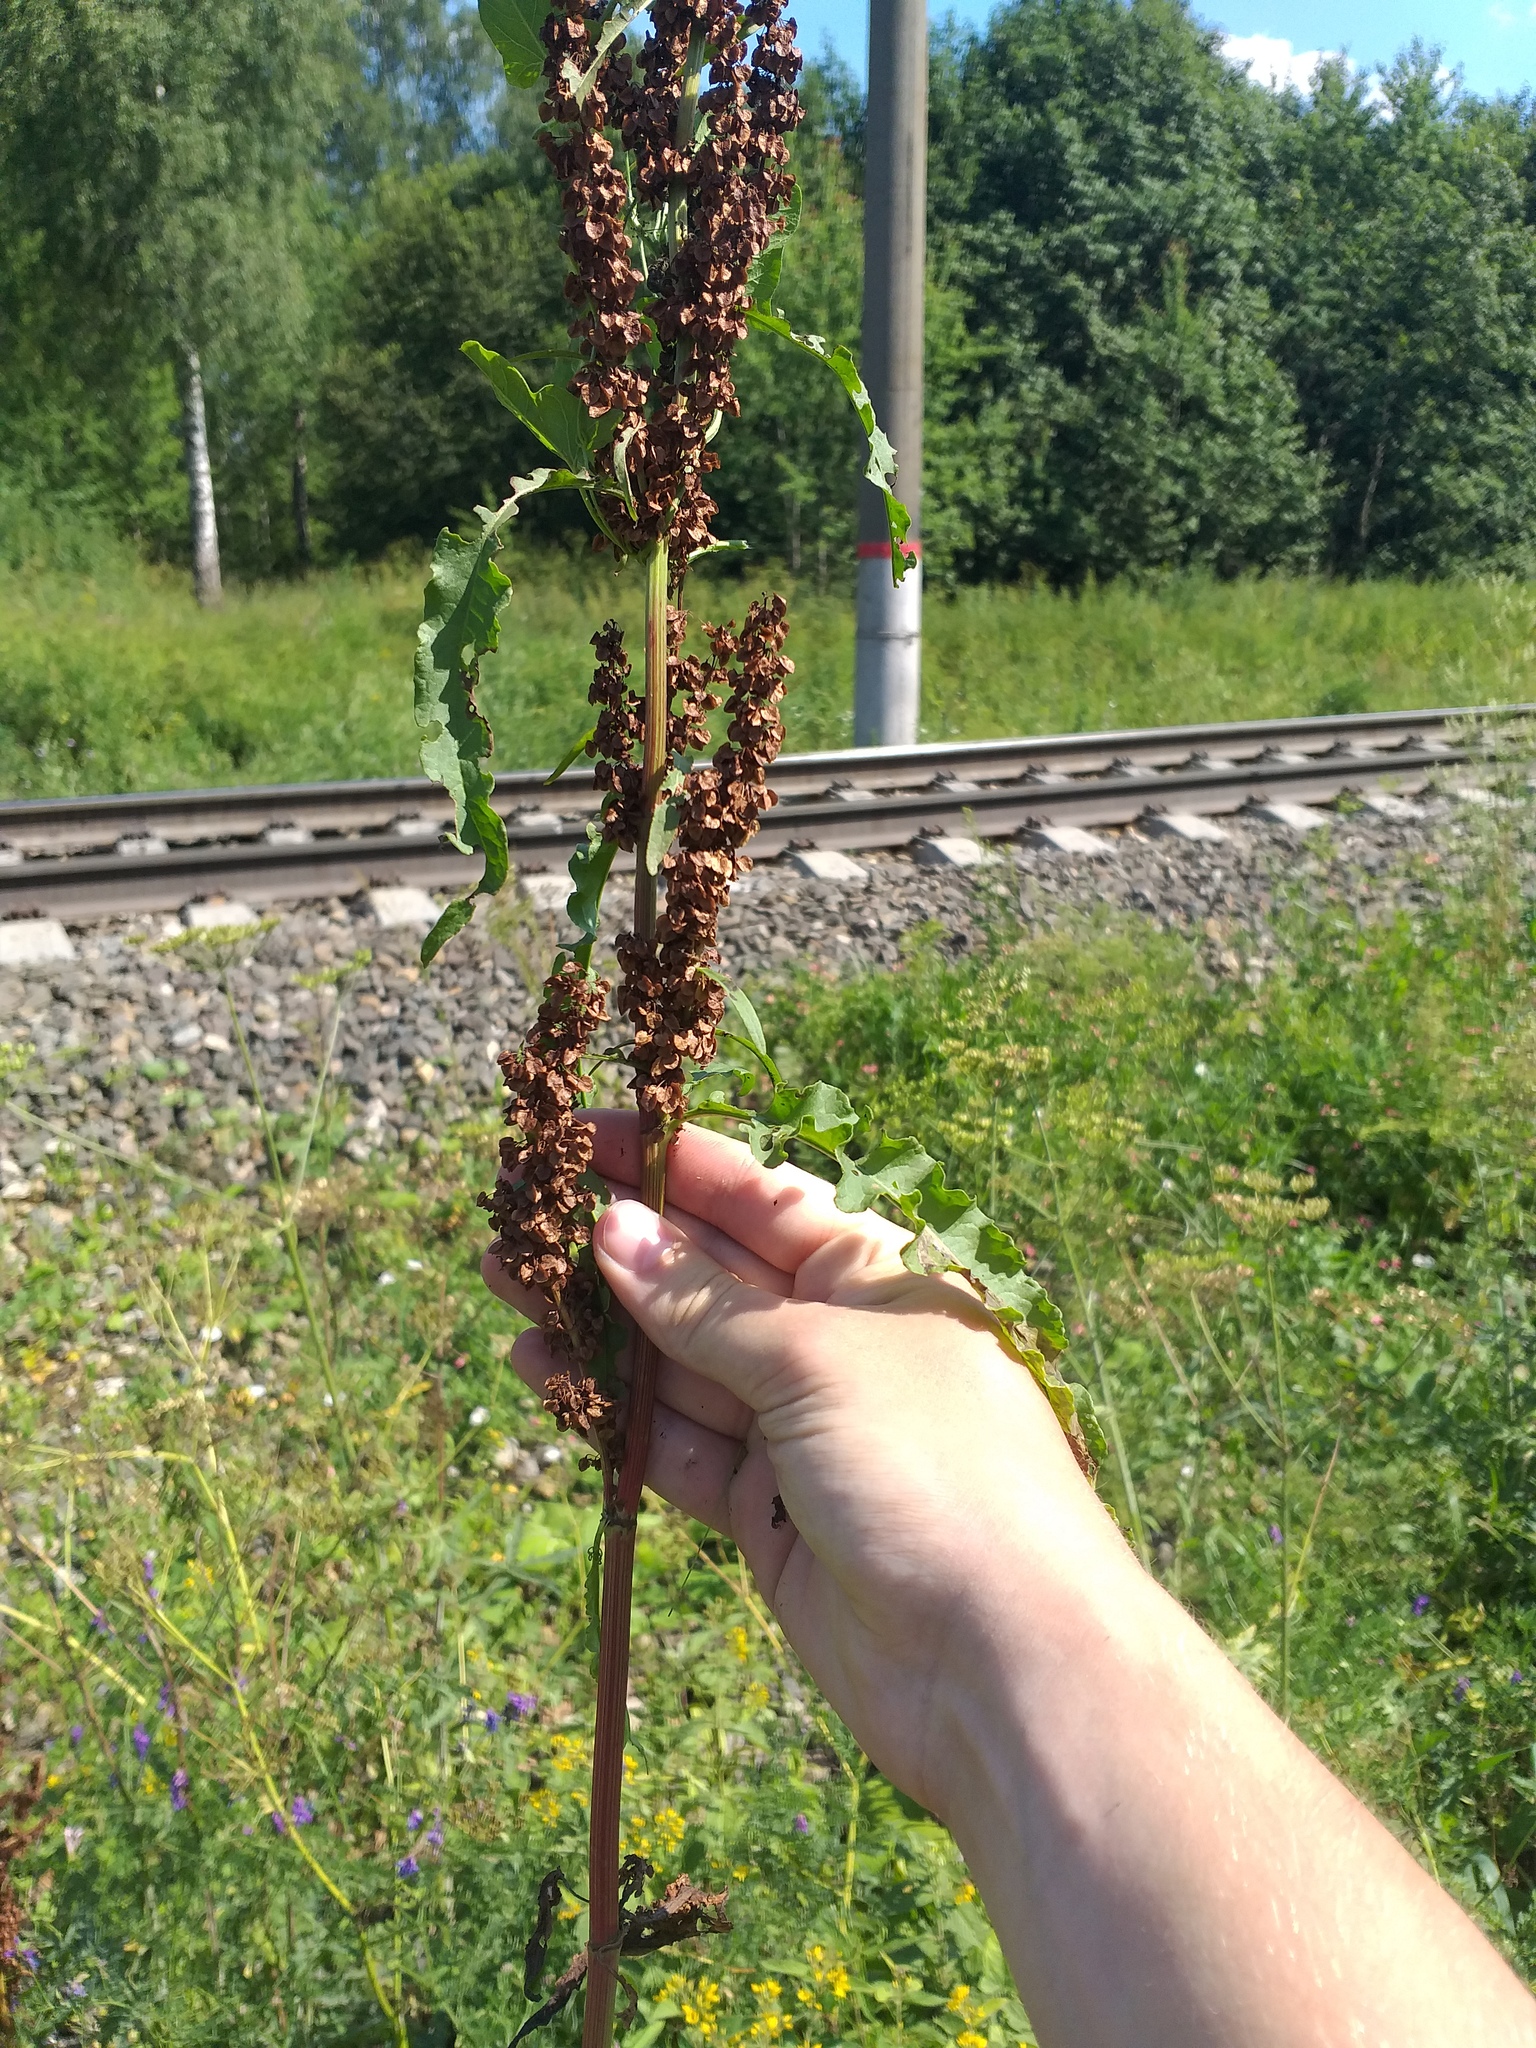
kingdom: Plantae
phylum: Tracheophyta
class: Magnoliopsida
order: Caryophyllales
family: Polygonaceae
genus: Rumex
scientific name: Rumex pseudonatronatus
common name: Field dock
